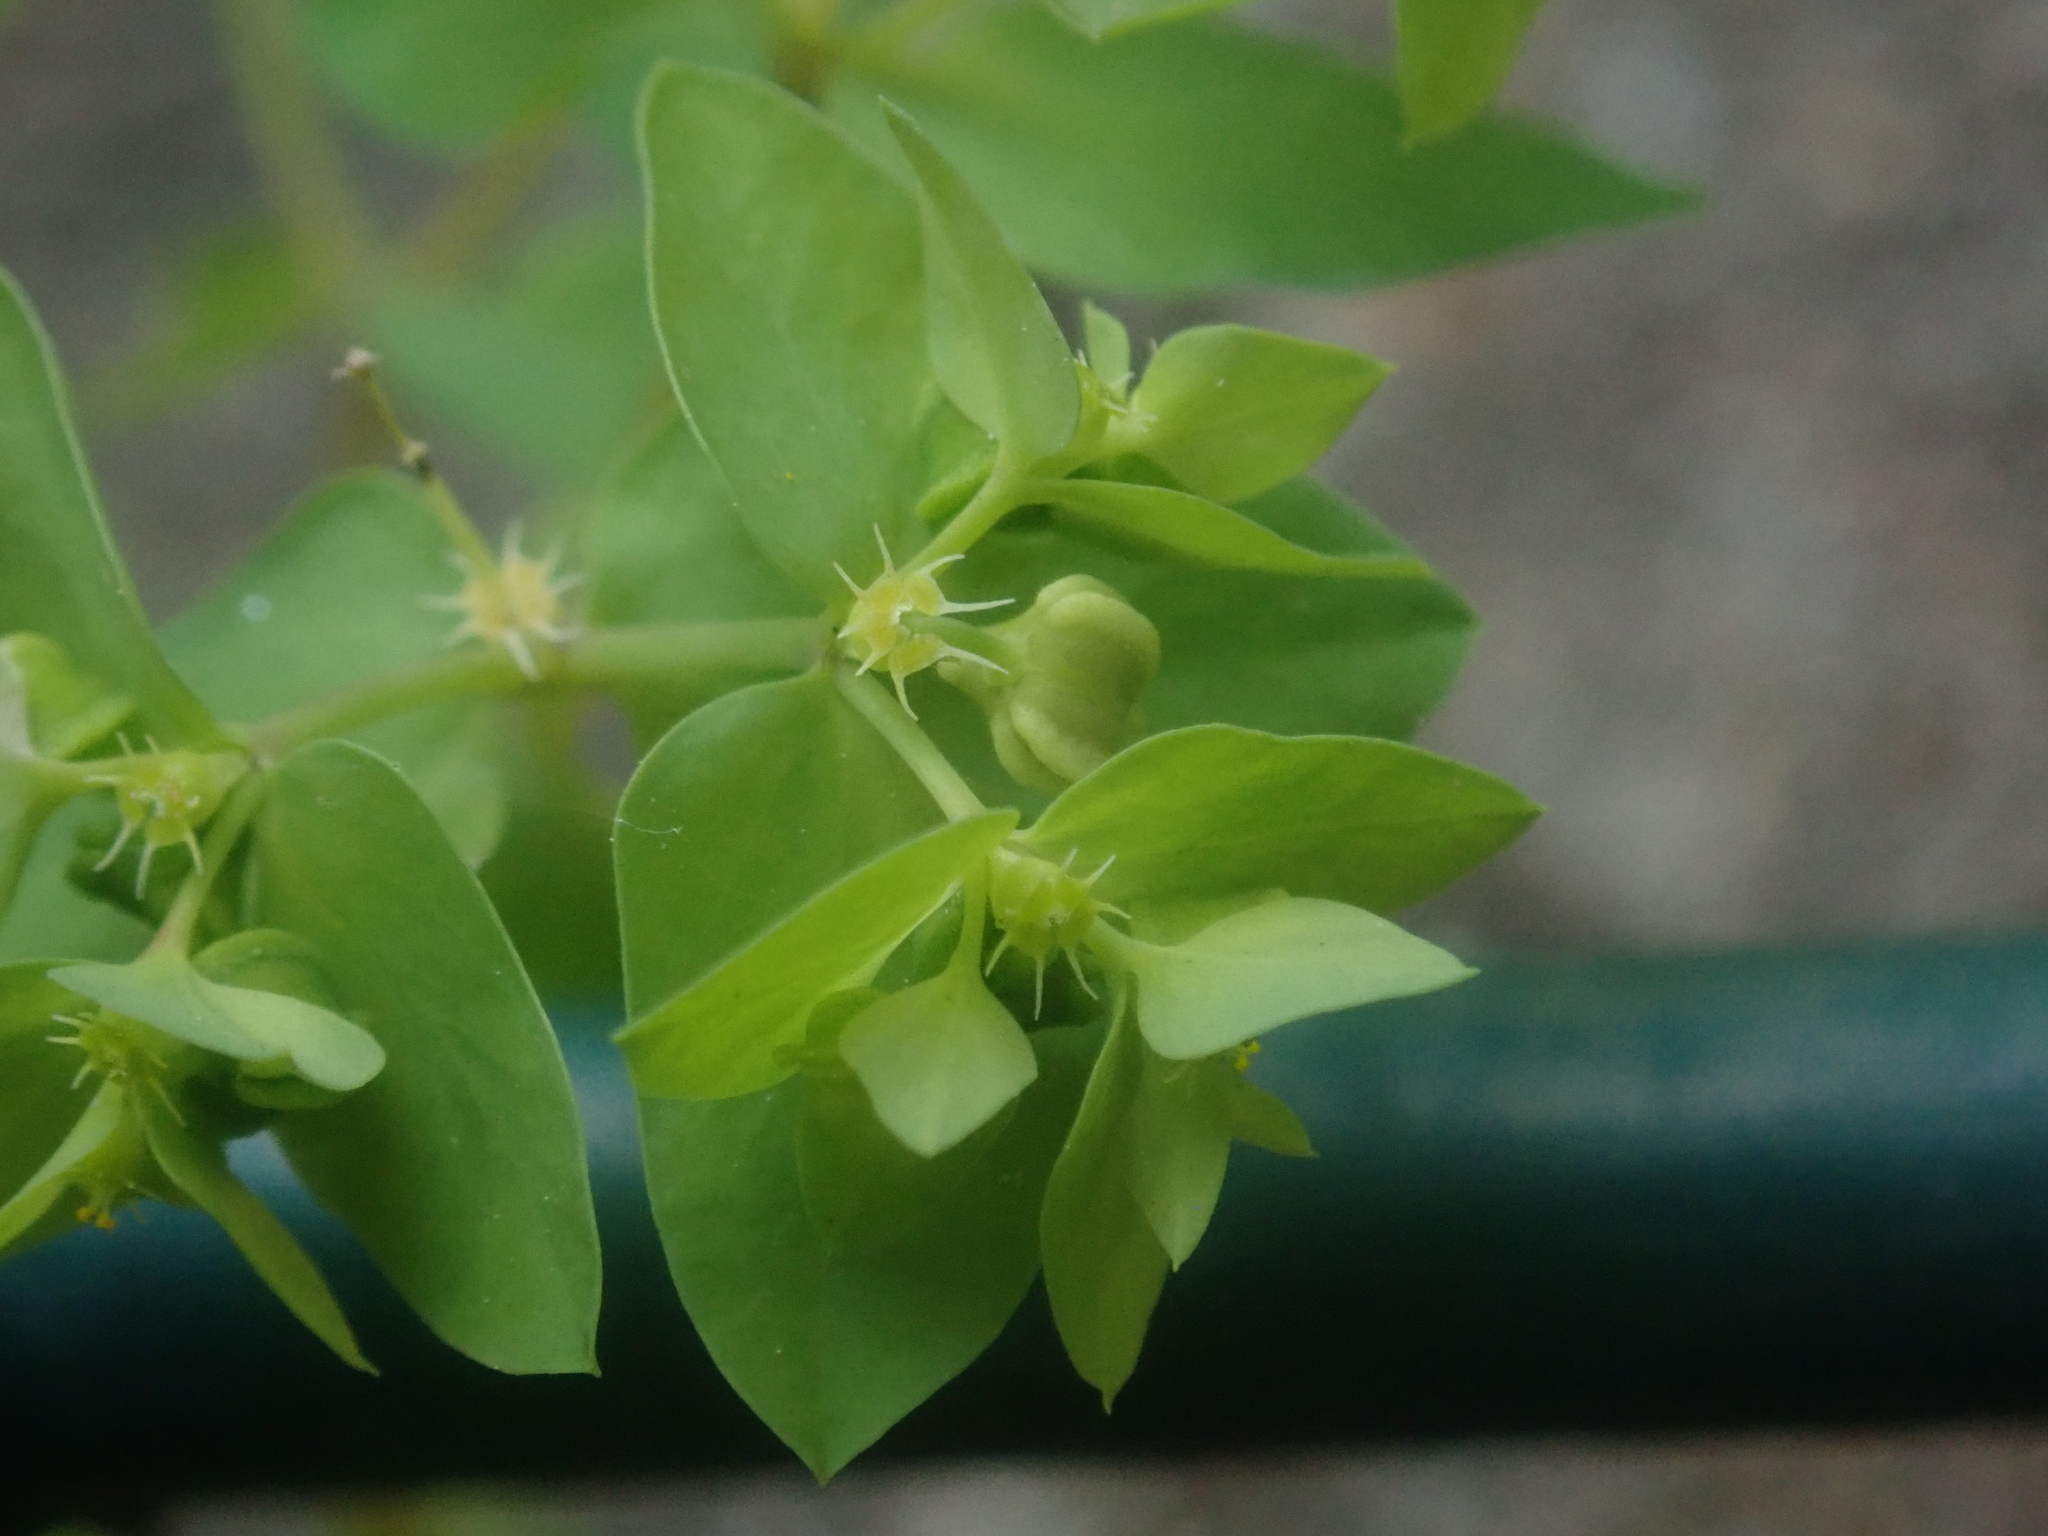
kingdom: Plantae
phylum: Tracheophyta
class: Magnoliopsida
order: Malpighiales
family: Euphorbiaceae
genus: Euphorbia
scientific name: Euphorbia peplus
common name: Petty spurge
